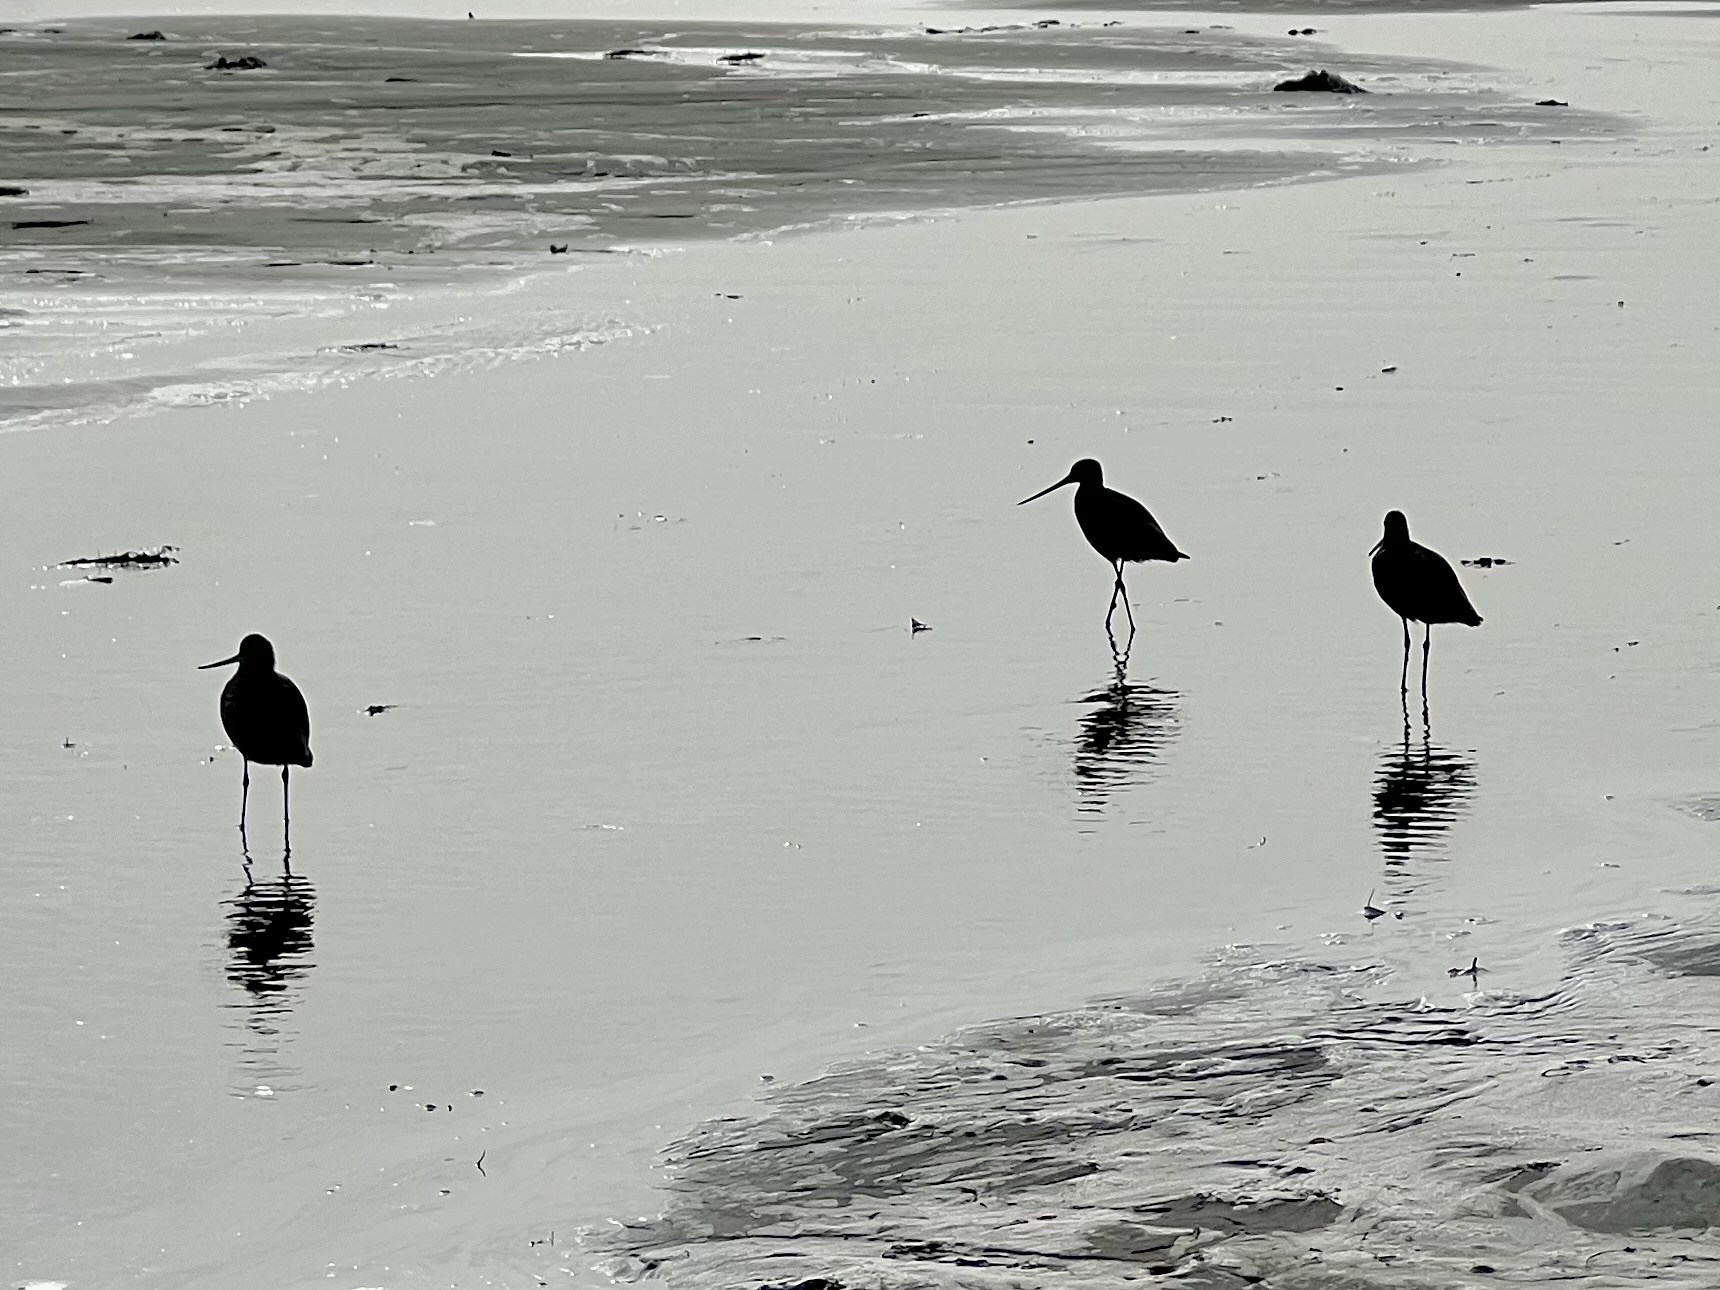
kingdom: Animalia
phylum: Chordata
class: Aves
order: Charadriiformes
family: Scolopacidae
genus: Limosa
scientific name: Limosa fedoa
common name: Marbled godwit
